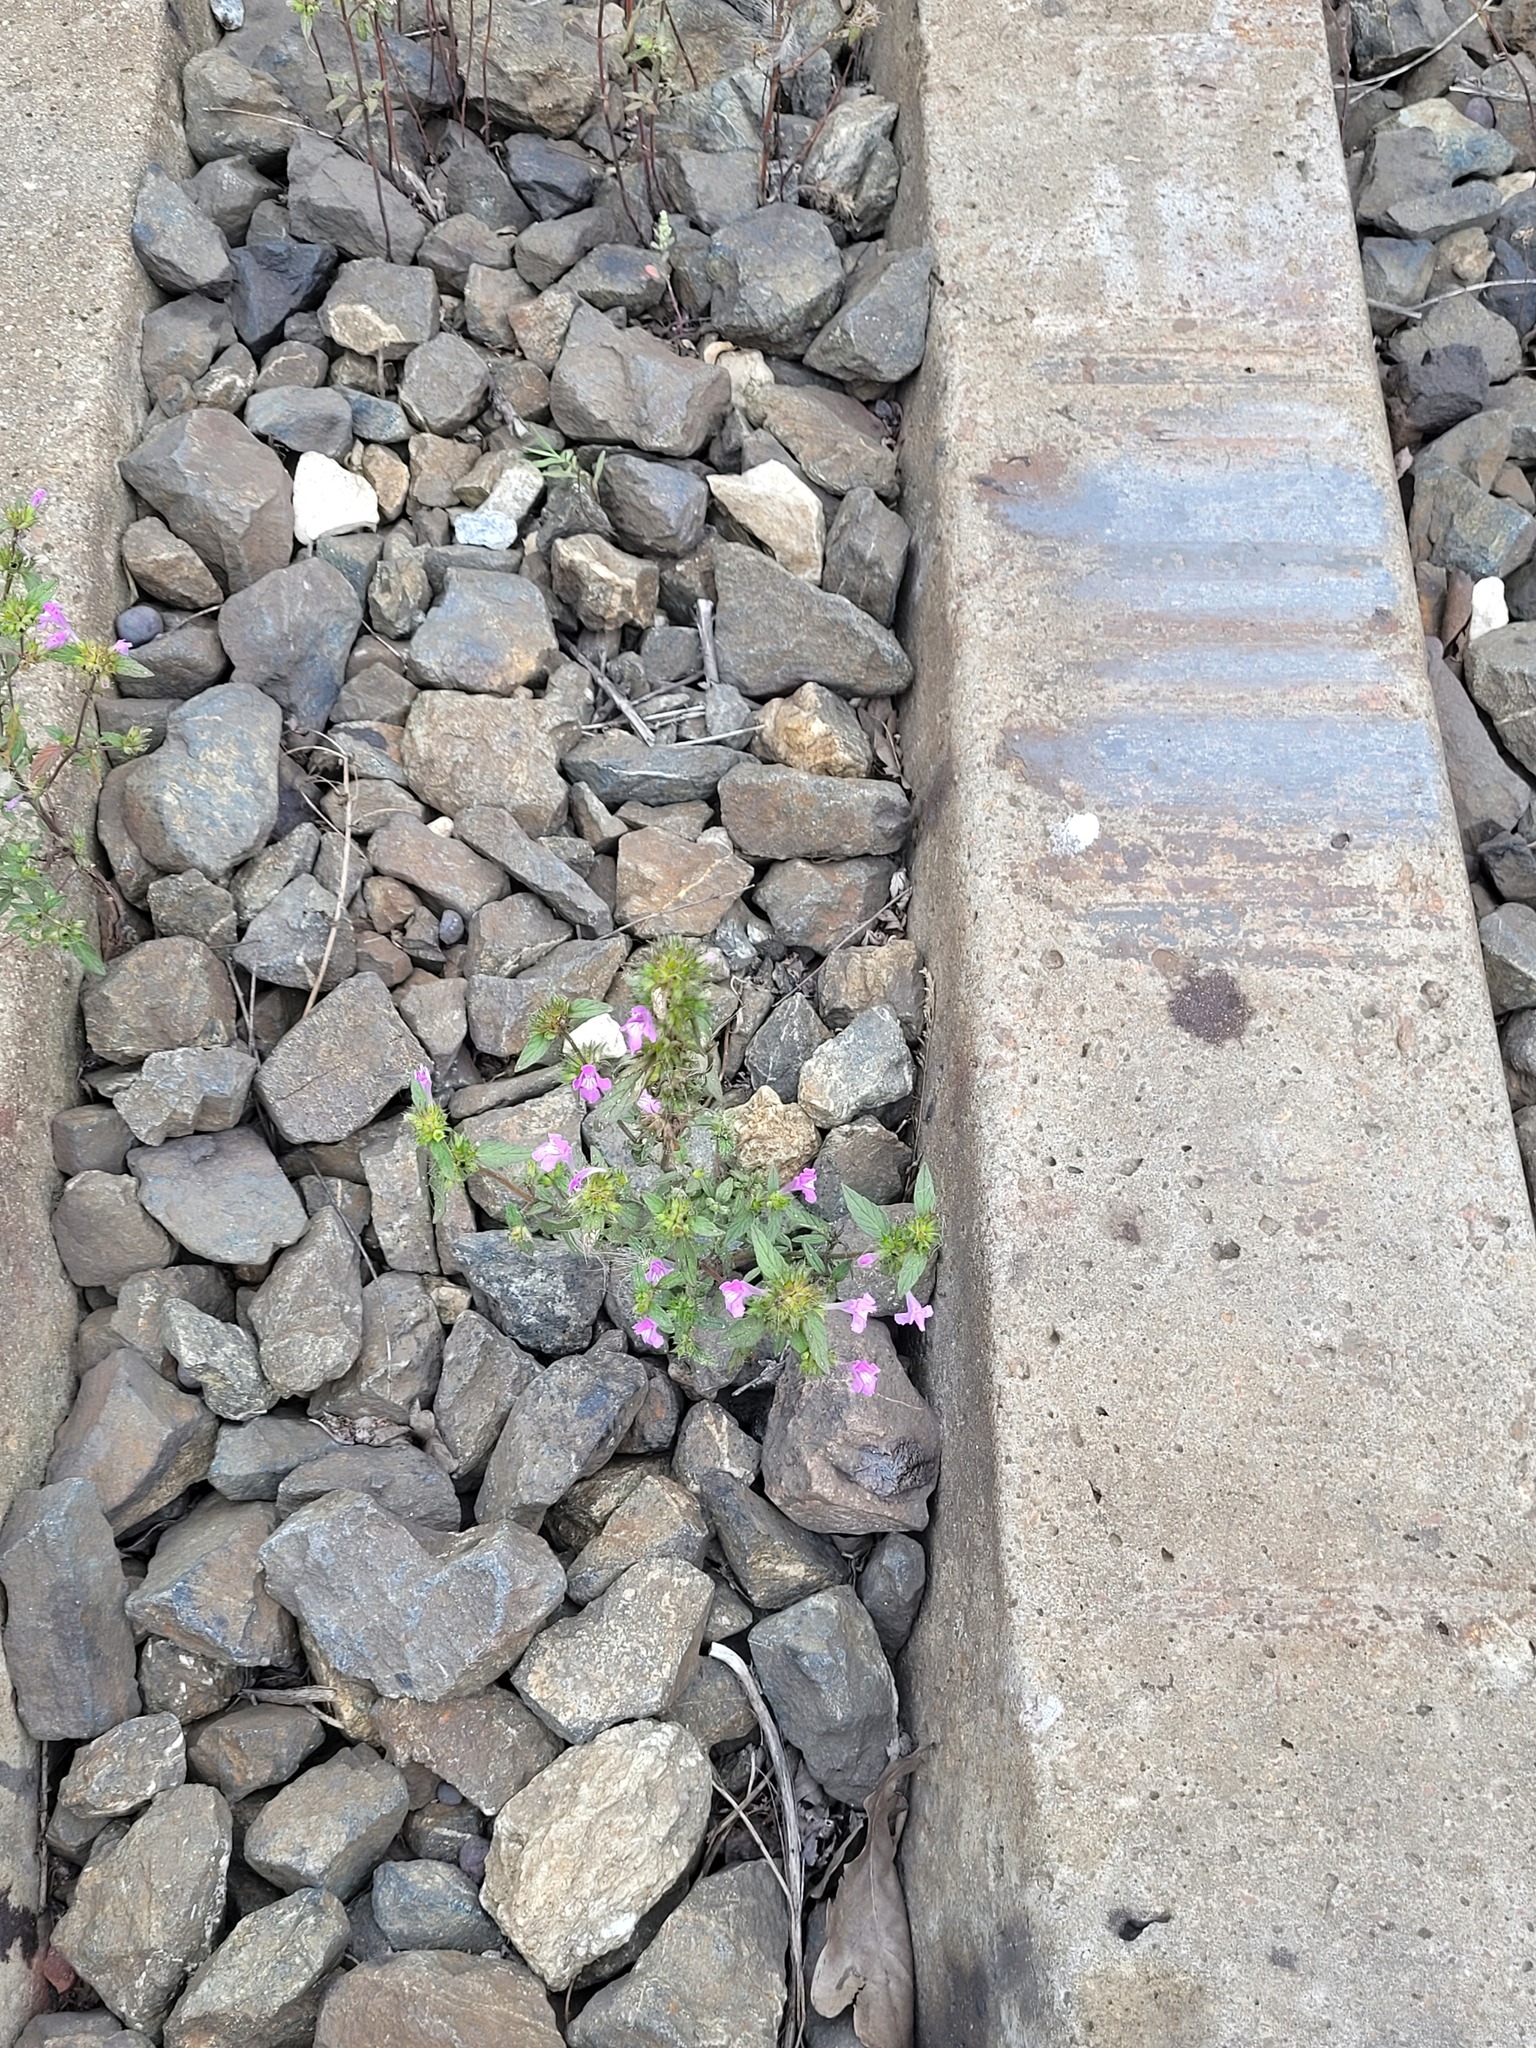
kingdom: Plantae
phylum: Tracheophyta
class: Magnoliopsida
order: Lamiales
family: Lamiaceae
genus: Galeopsis
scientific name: Galeopsis ladanum
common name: Broad-leaved hemp-nettle
